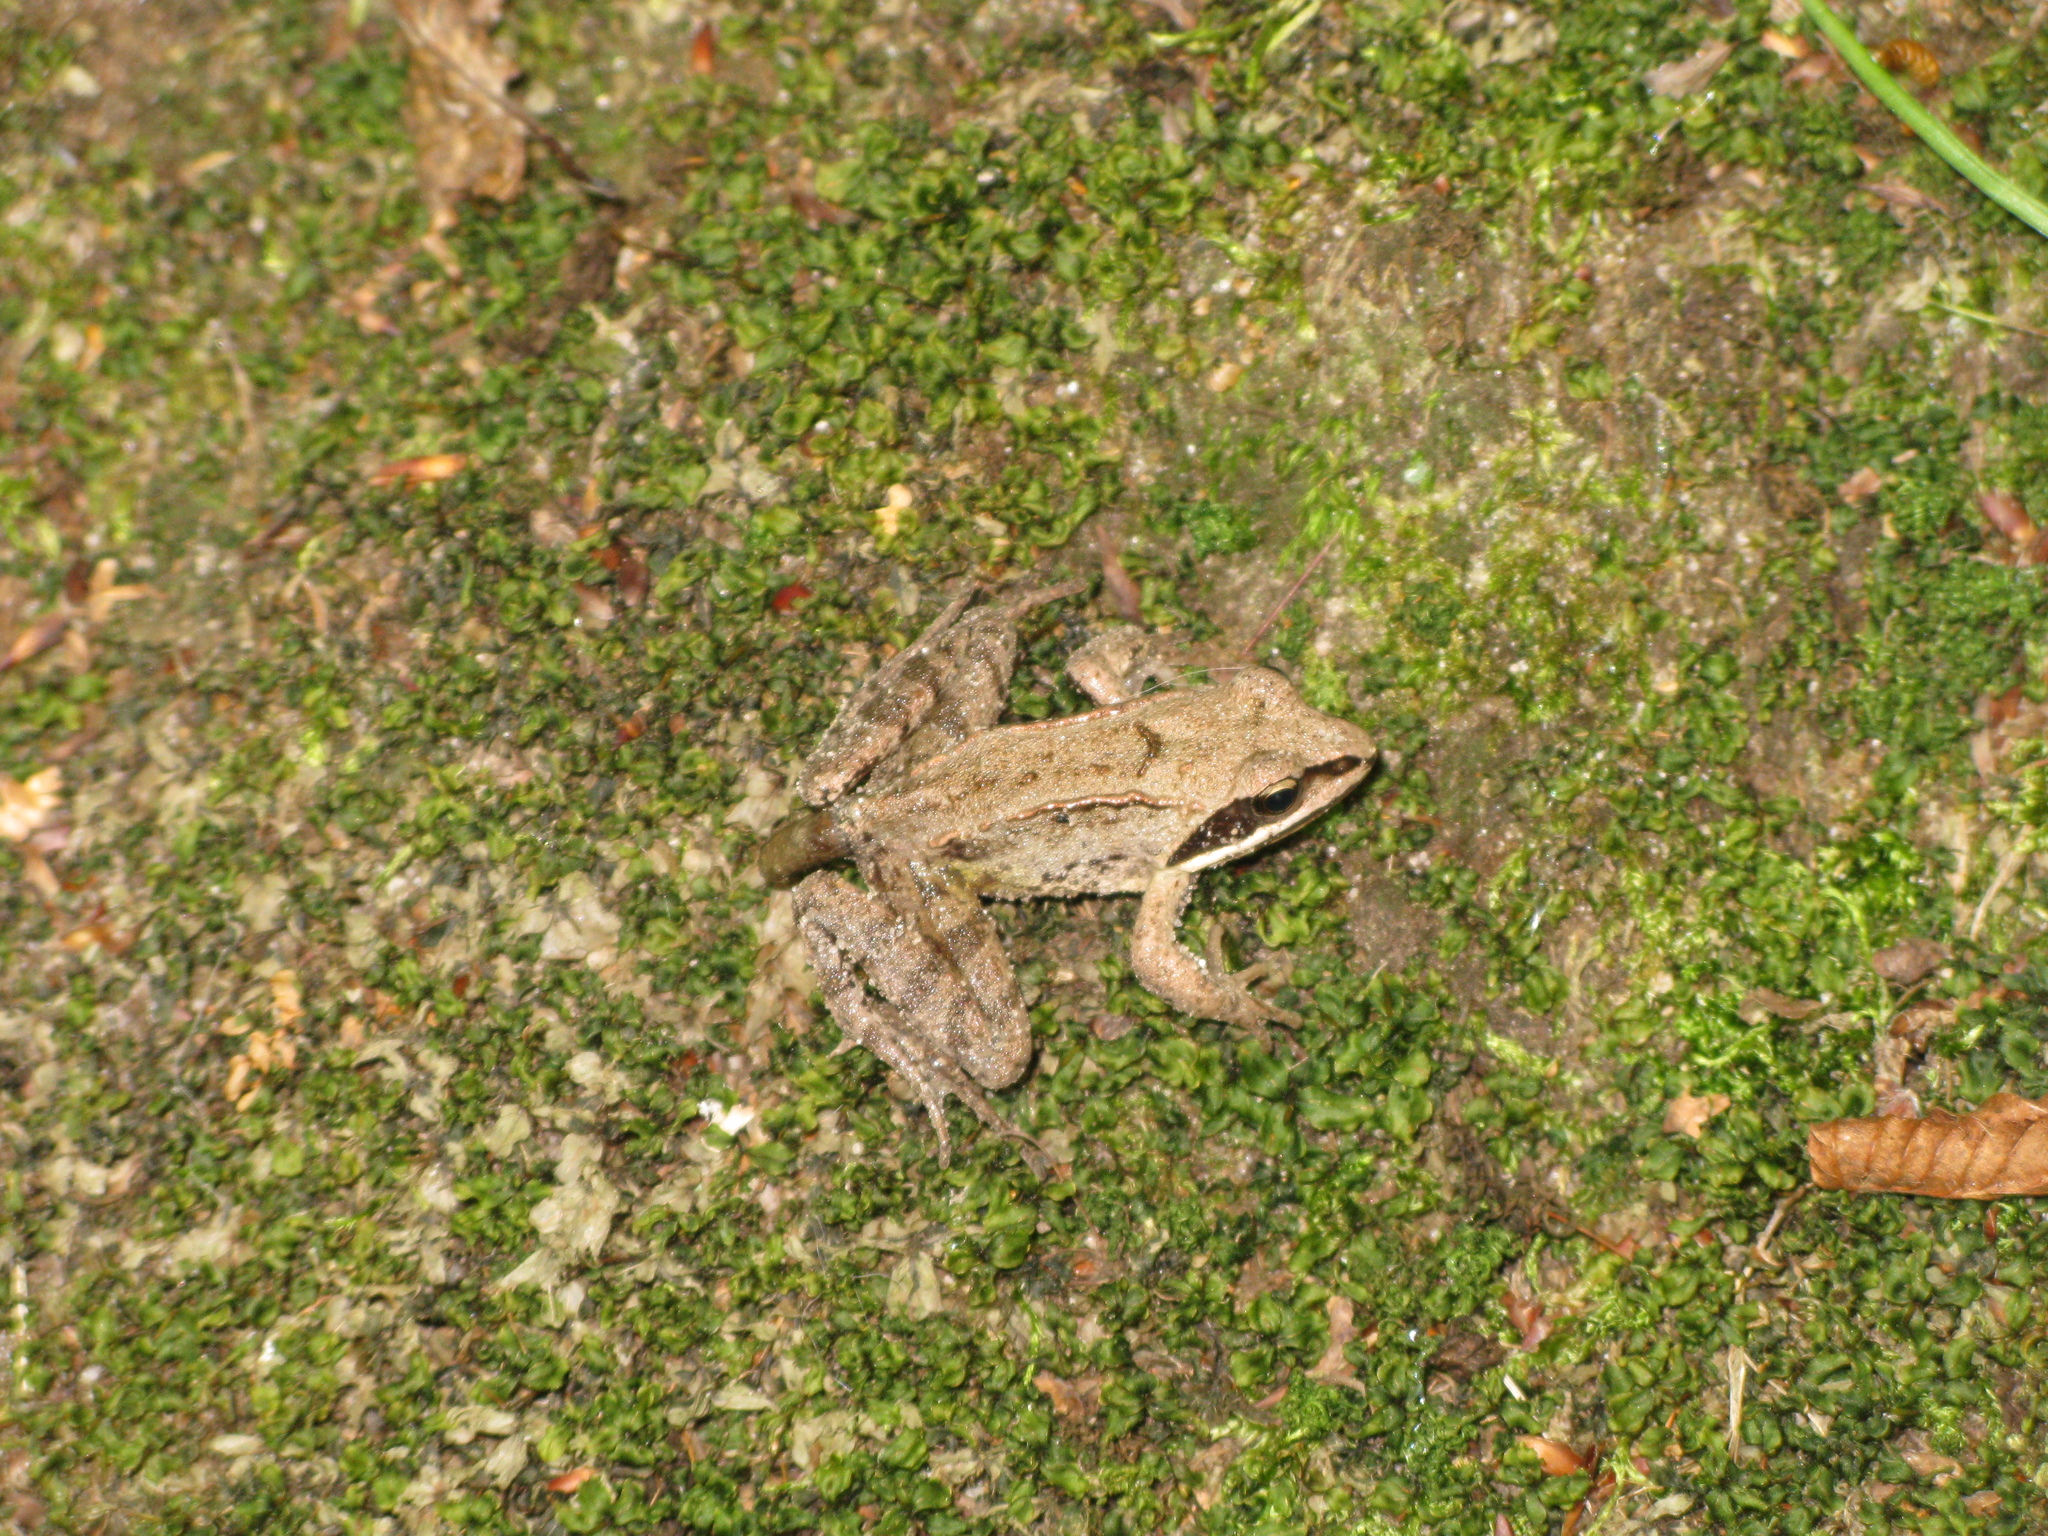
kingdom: Animalia
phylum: Chordata
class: Amphibia
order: Anura
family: Ranidae
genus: Rana
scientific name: Rana arvalis
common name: Moor frog
